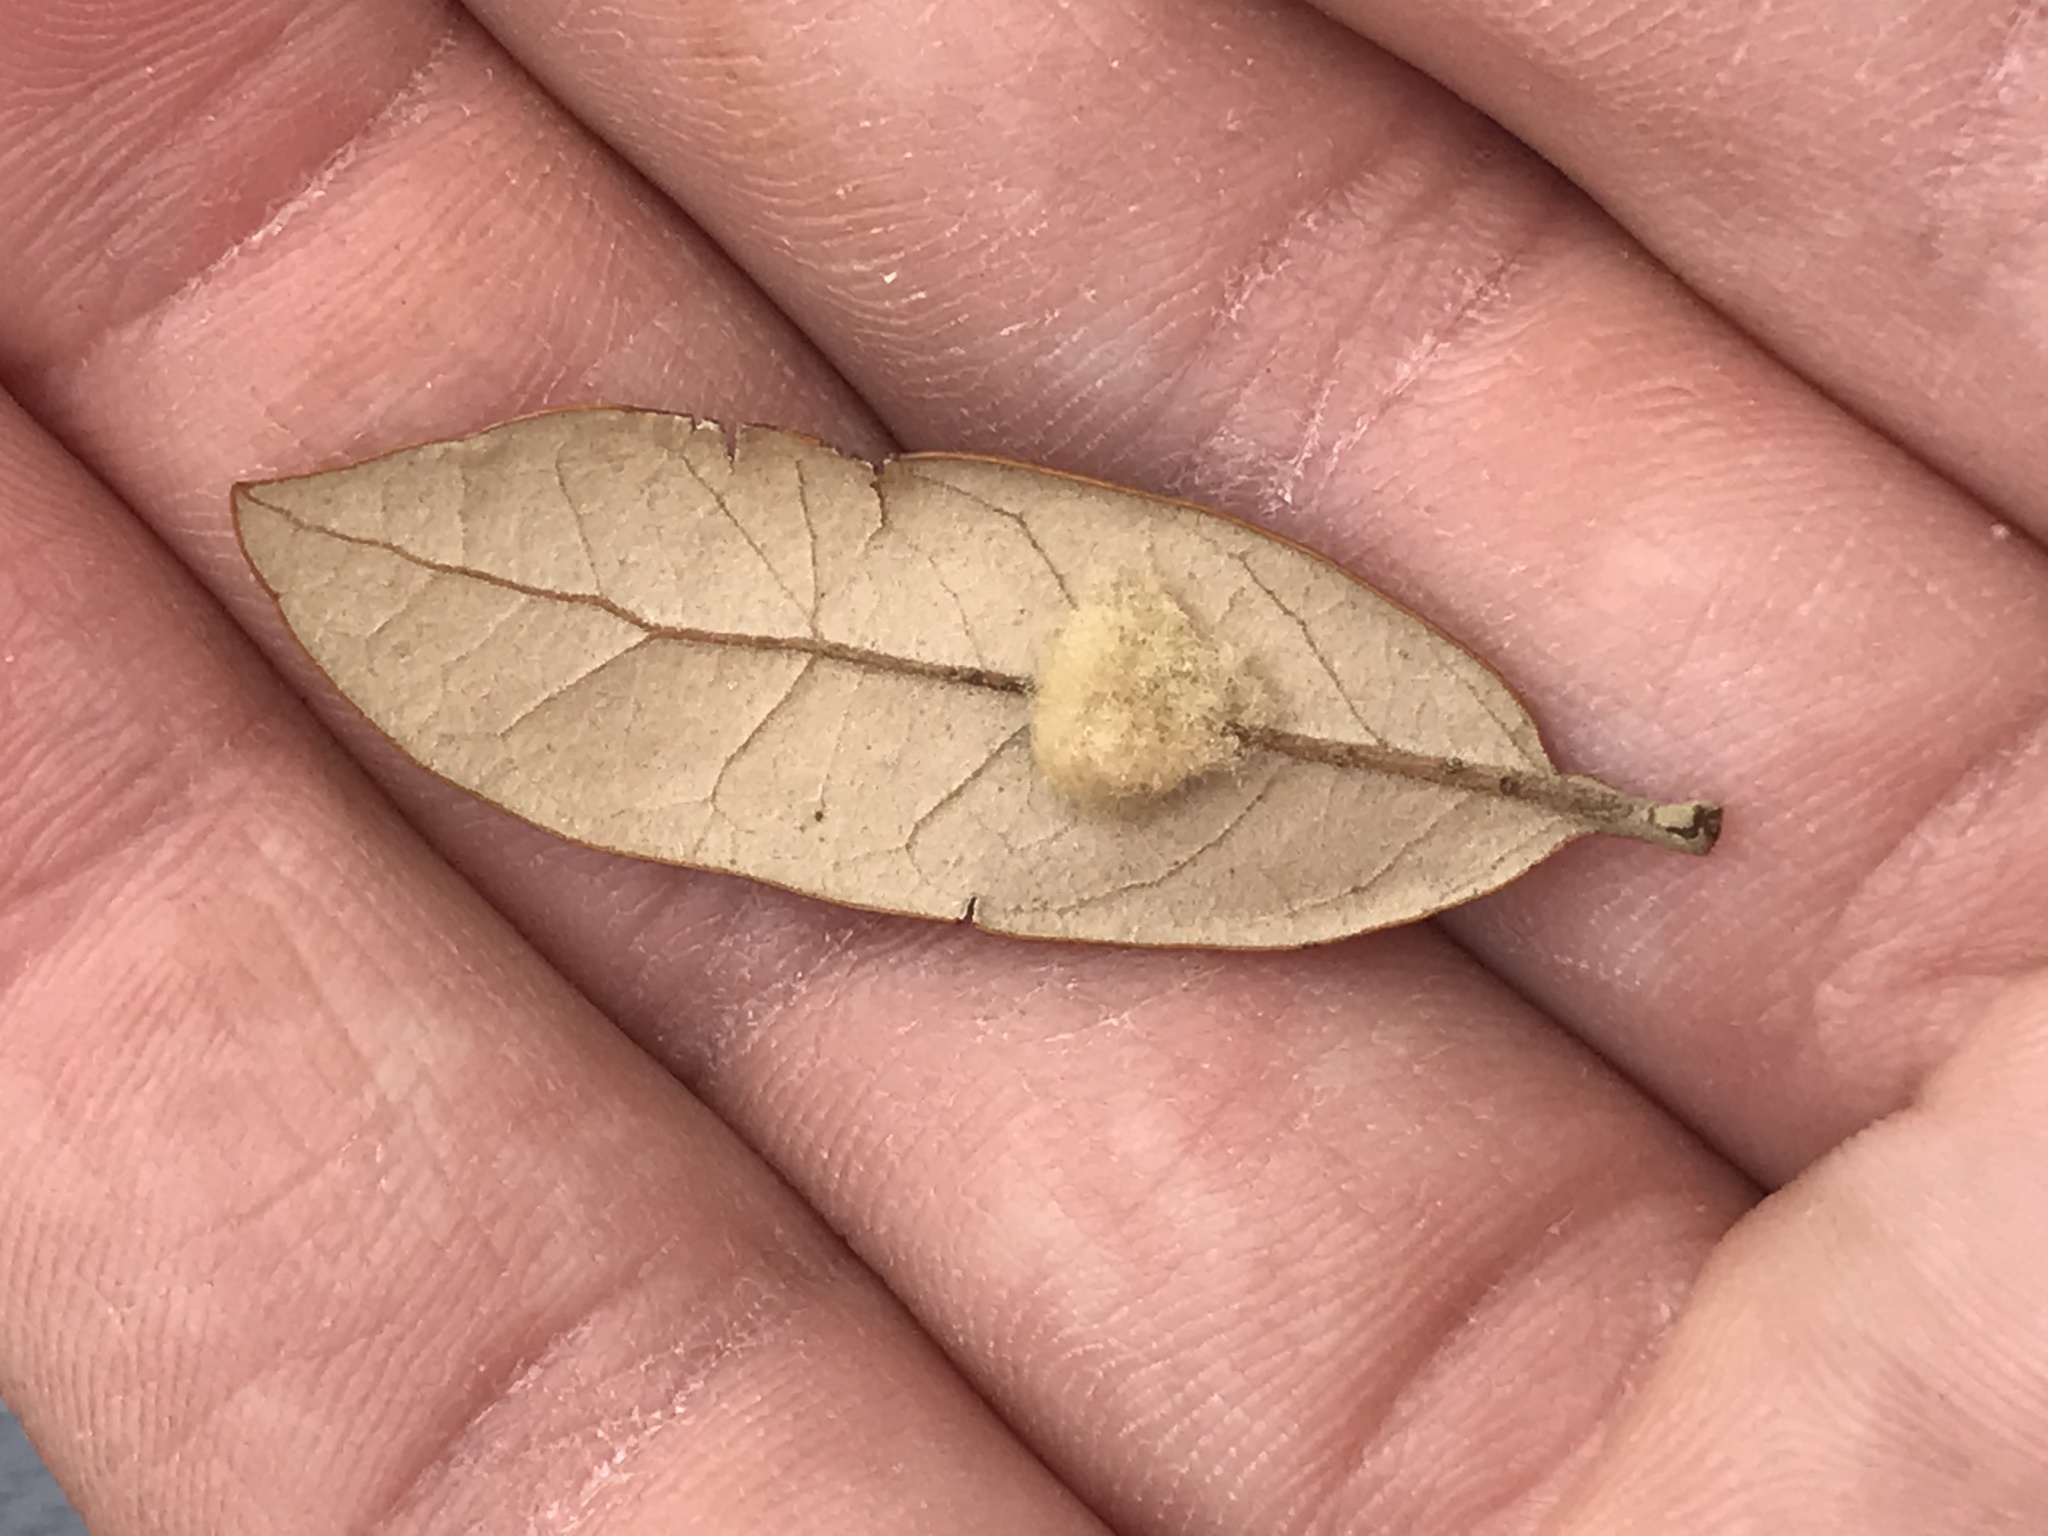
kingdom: Animalia
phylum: Arthropoda
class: Insecta
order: Hymenoptera
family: Cynipidae
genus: Andricus
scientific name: Andricus Druon quercuslanigerum
